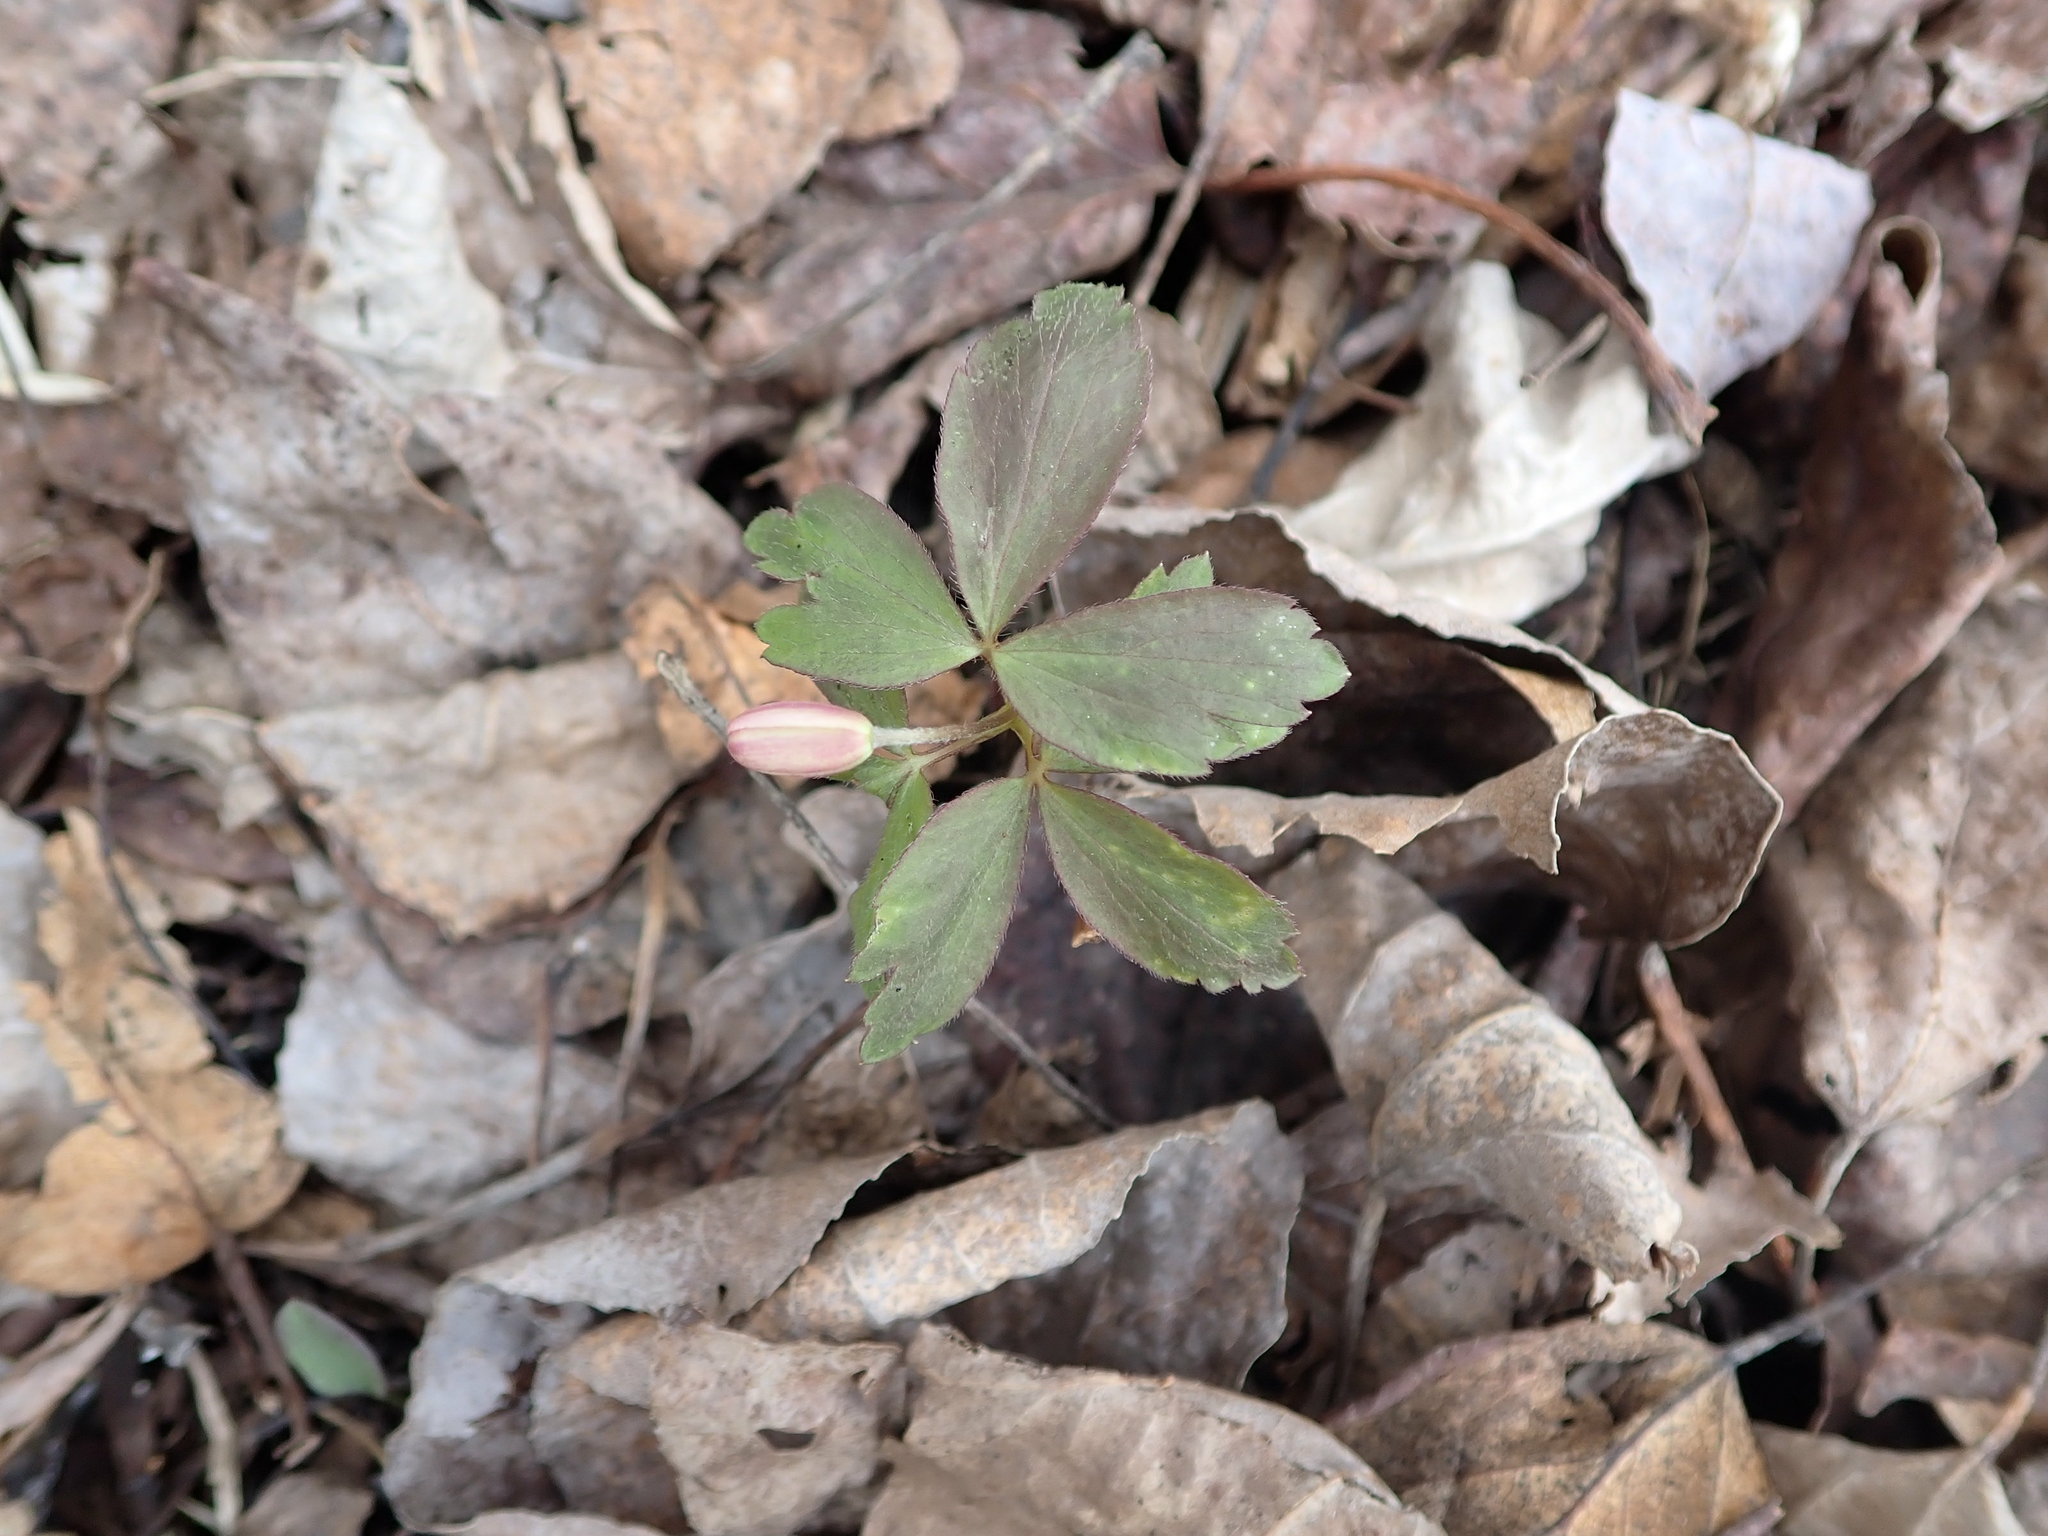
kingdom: Plantae
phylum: Tracheophyta
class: Magnoliopsida
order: Ranunculales
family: Ranunculaceae
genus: Anemone
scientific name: Anemone quinquefolia
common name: Wood anemone
